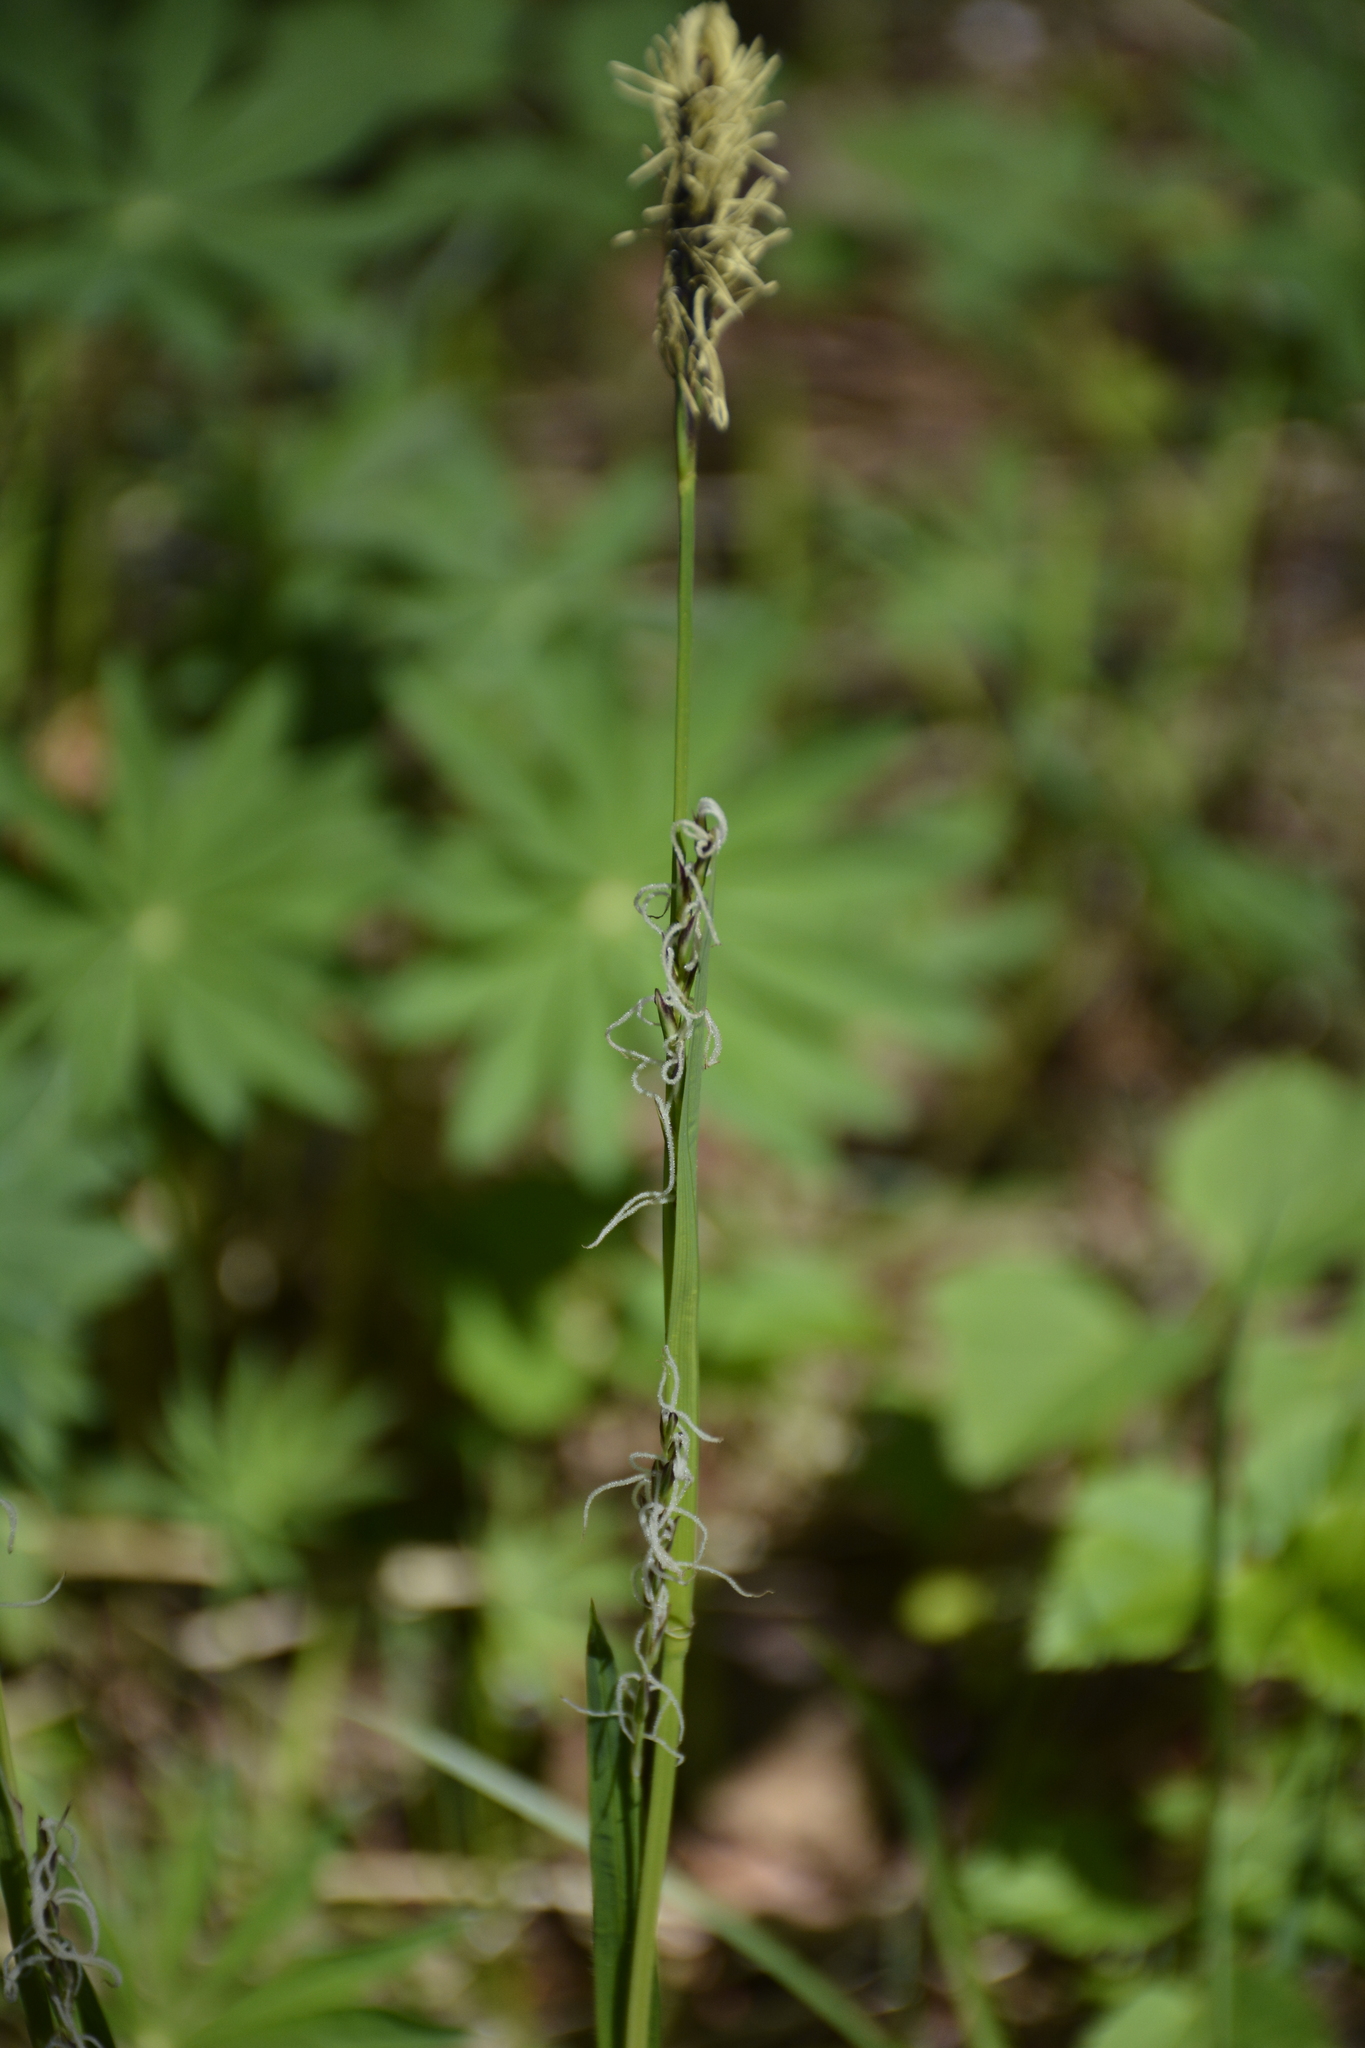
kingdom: Plantae
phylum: Tracheophyta
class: Liliopsida
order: Poales
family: Cyperaceae
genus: Carex
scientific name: Carex pilosa
